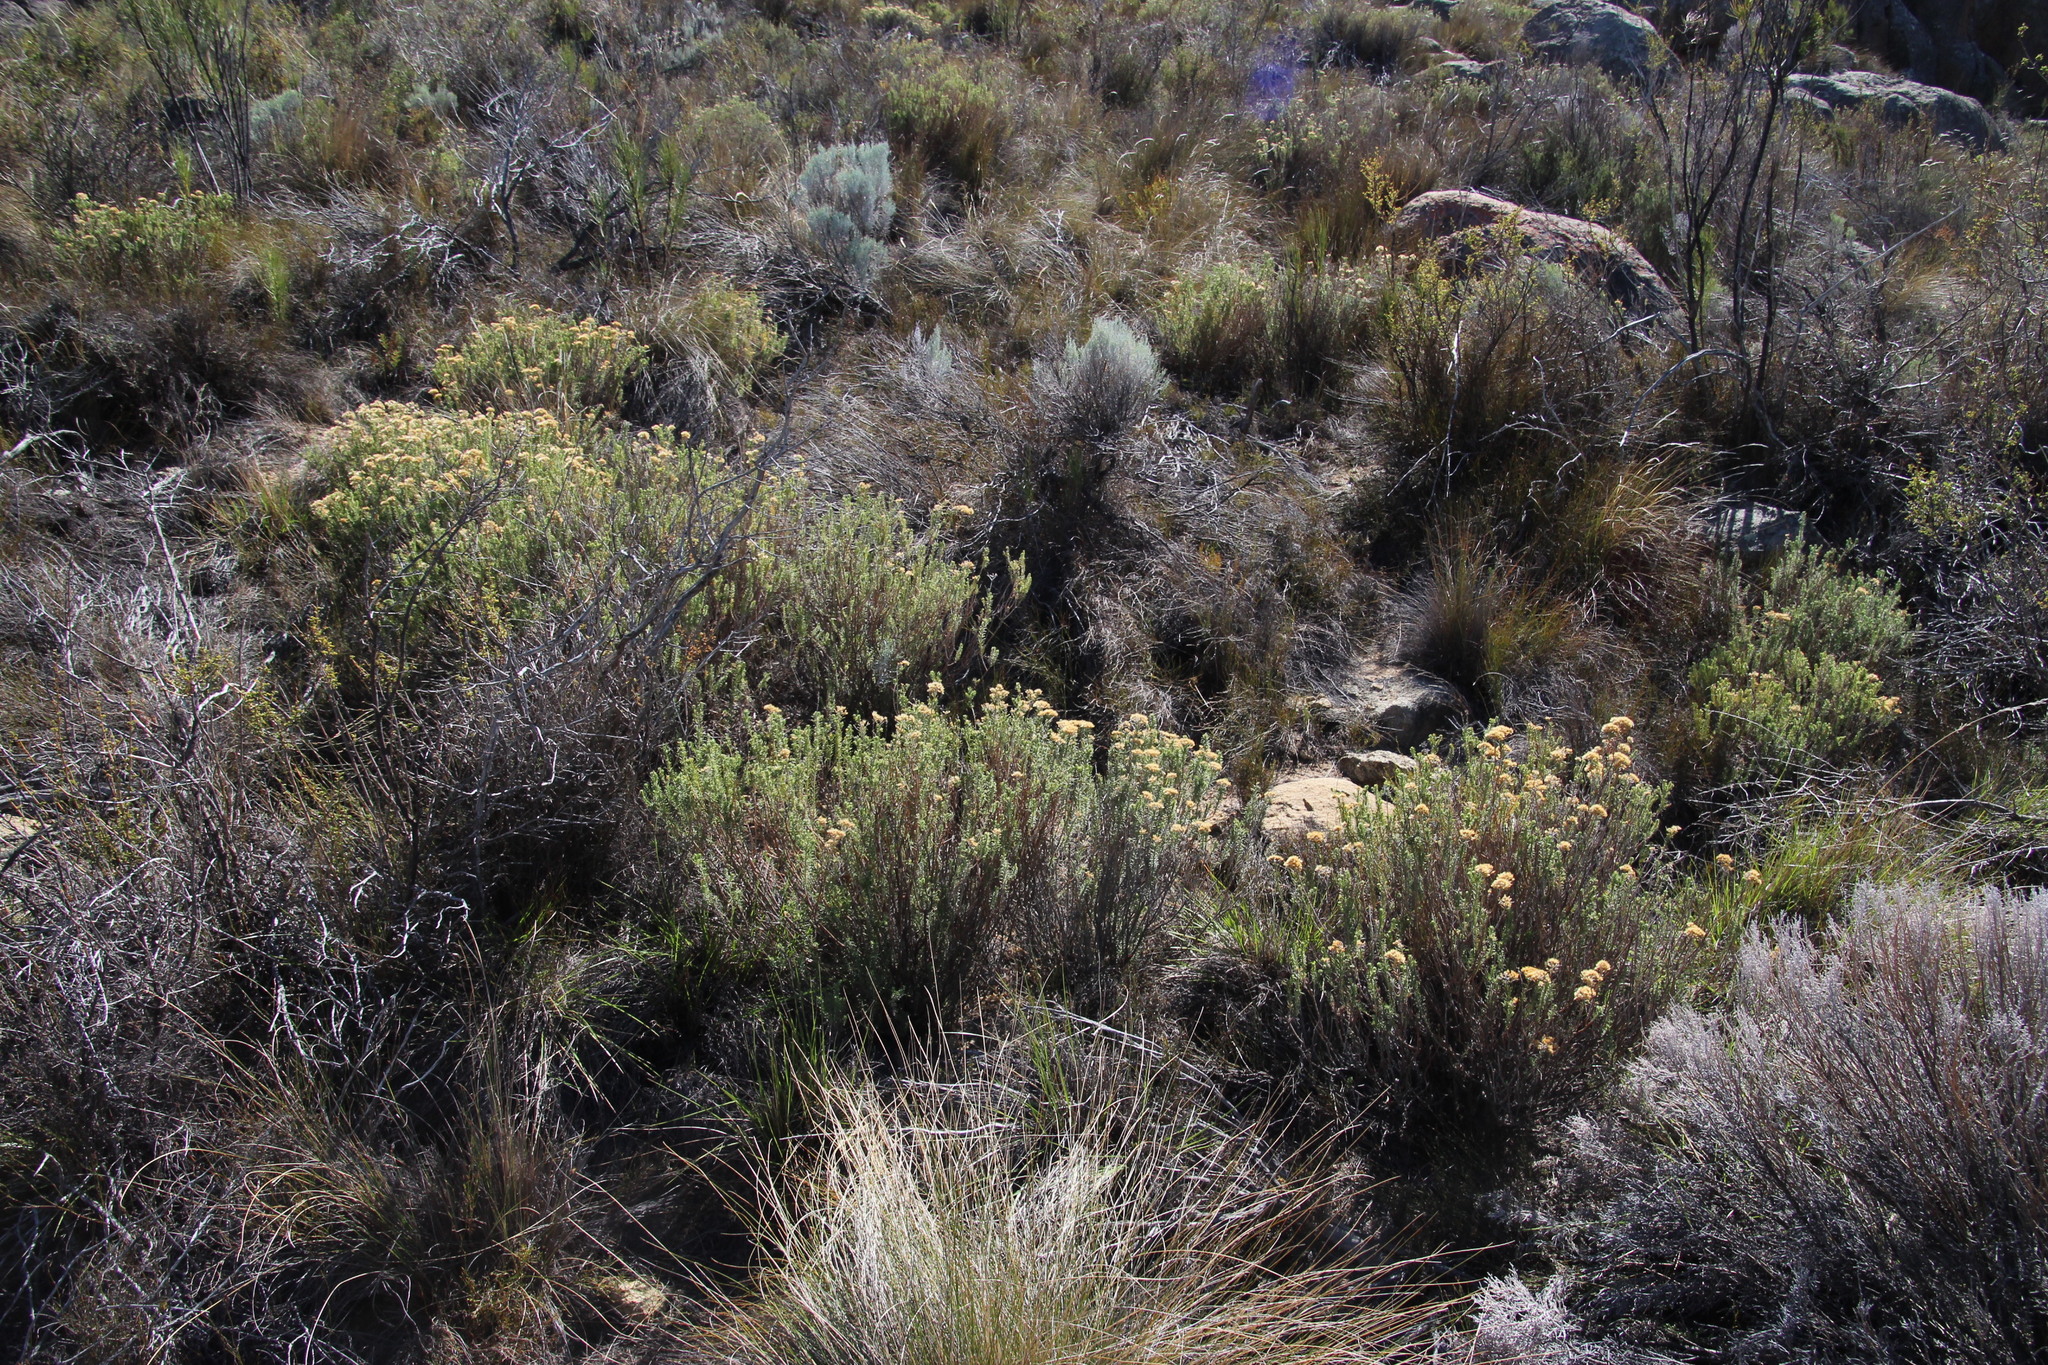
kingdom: Plantae
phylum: Tracheophyta
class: Magnoliopsida
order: Asterales
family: Asteraceae
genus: Metalasia
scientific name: Metalasia densa
